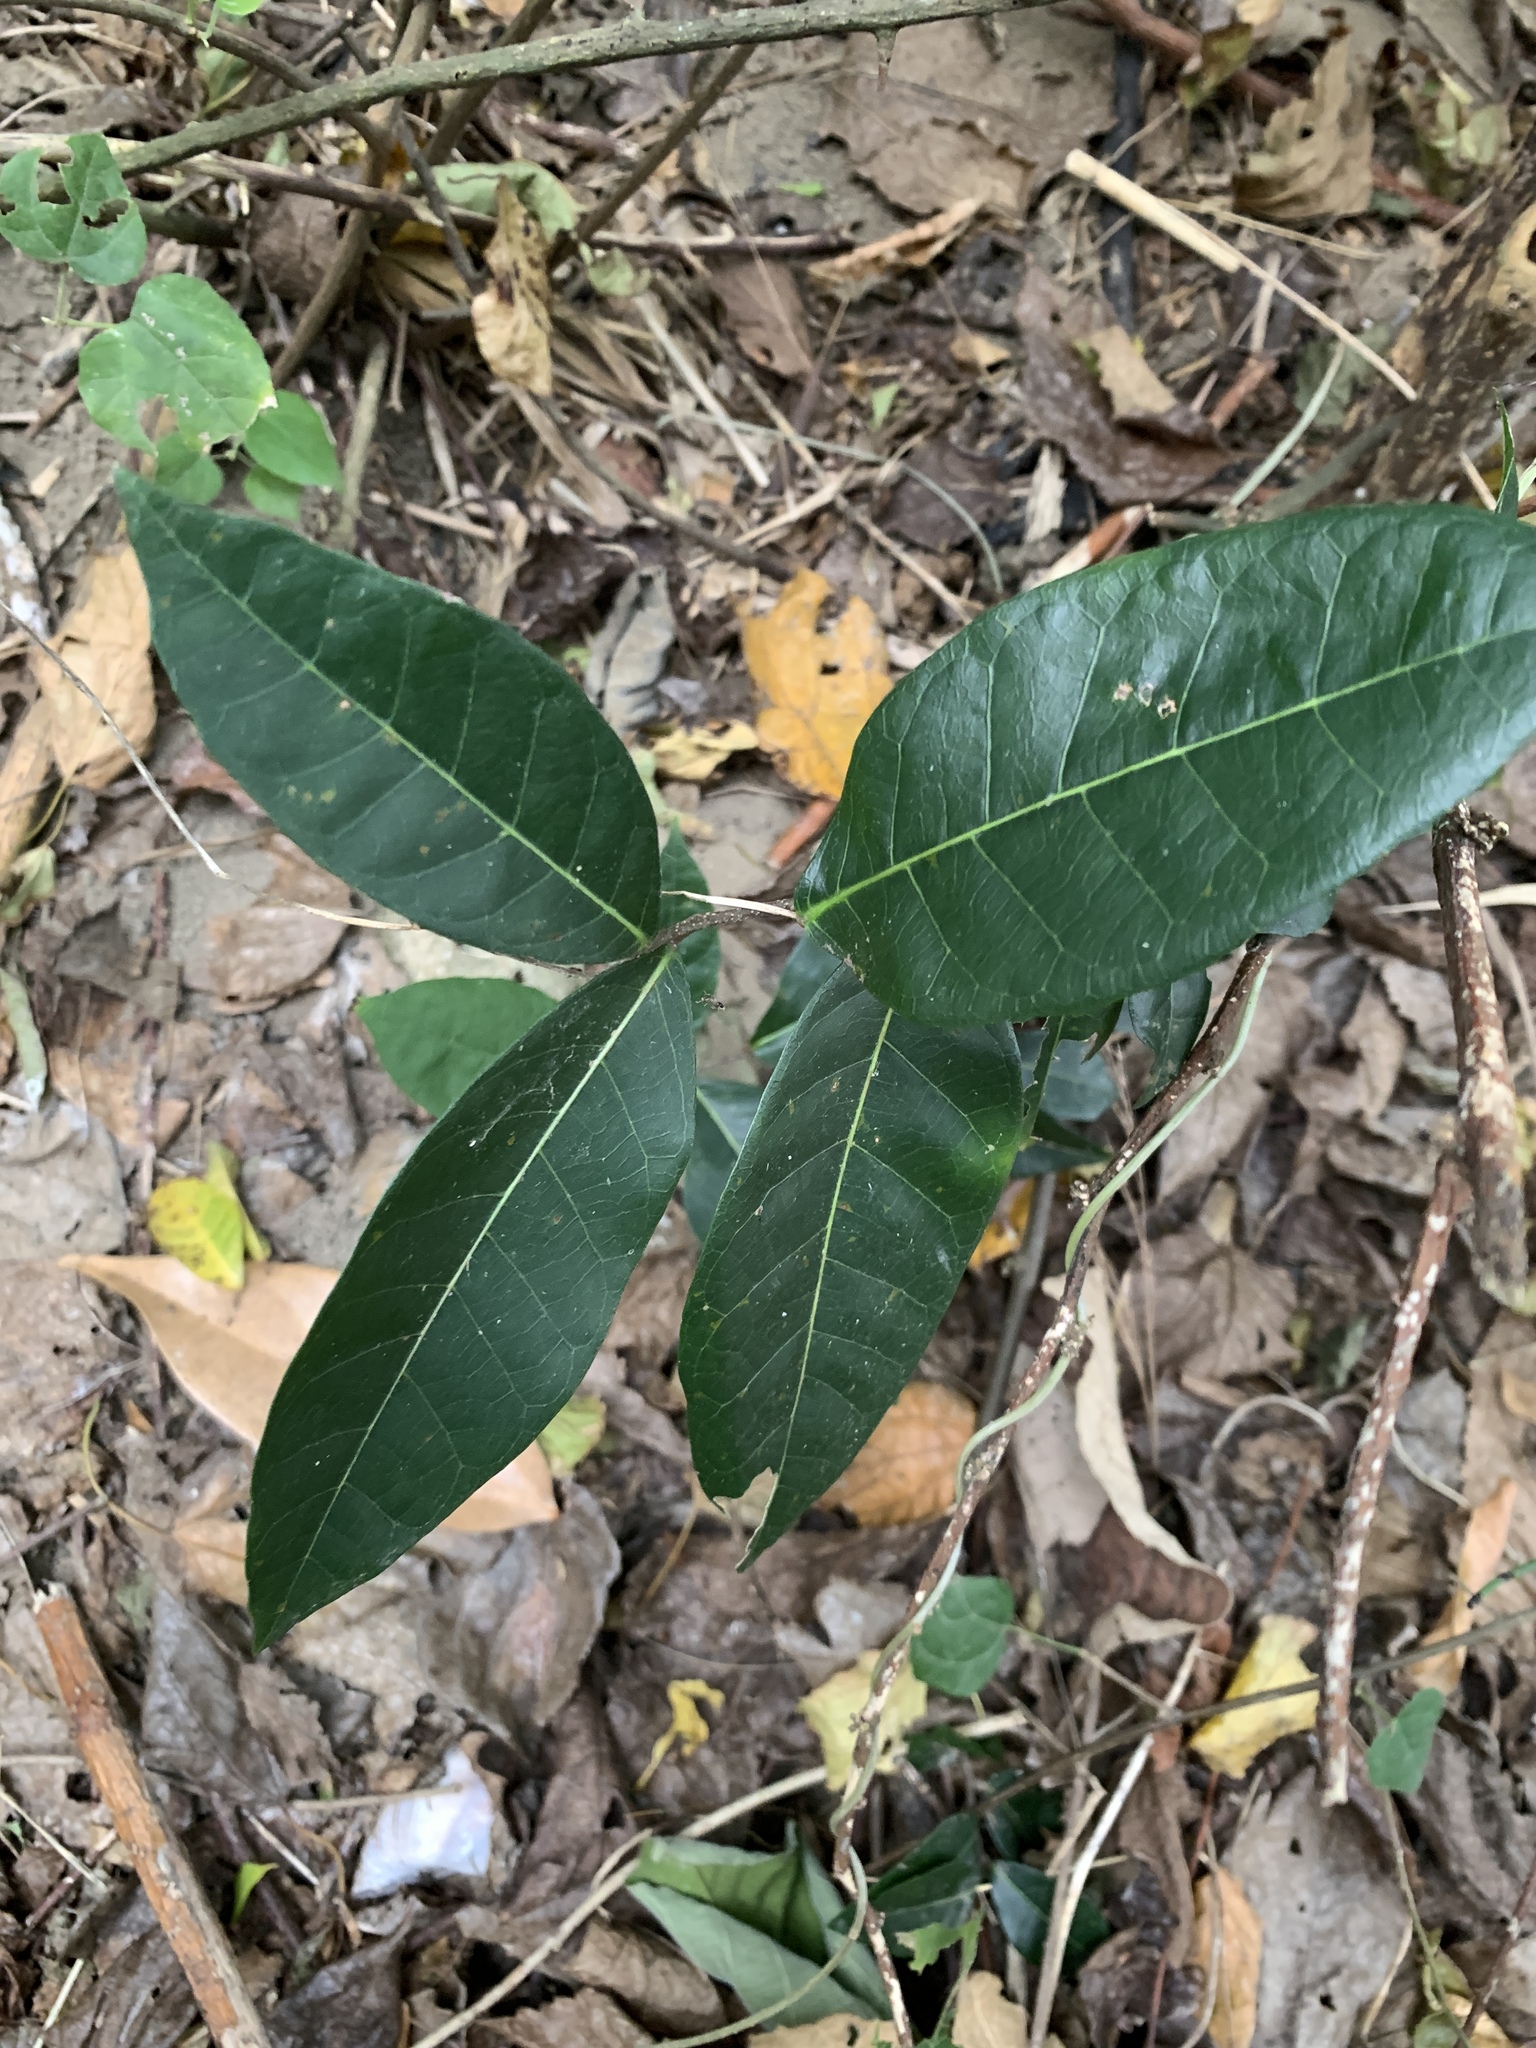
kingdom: Plantae
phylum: Tracheophyta
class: Magnoliopsida
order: Rosales
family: Moraceae
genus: Malaisia
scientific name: Malaisia scandens
